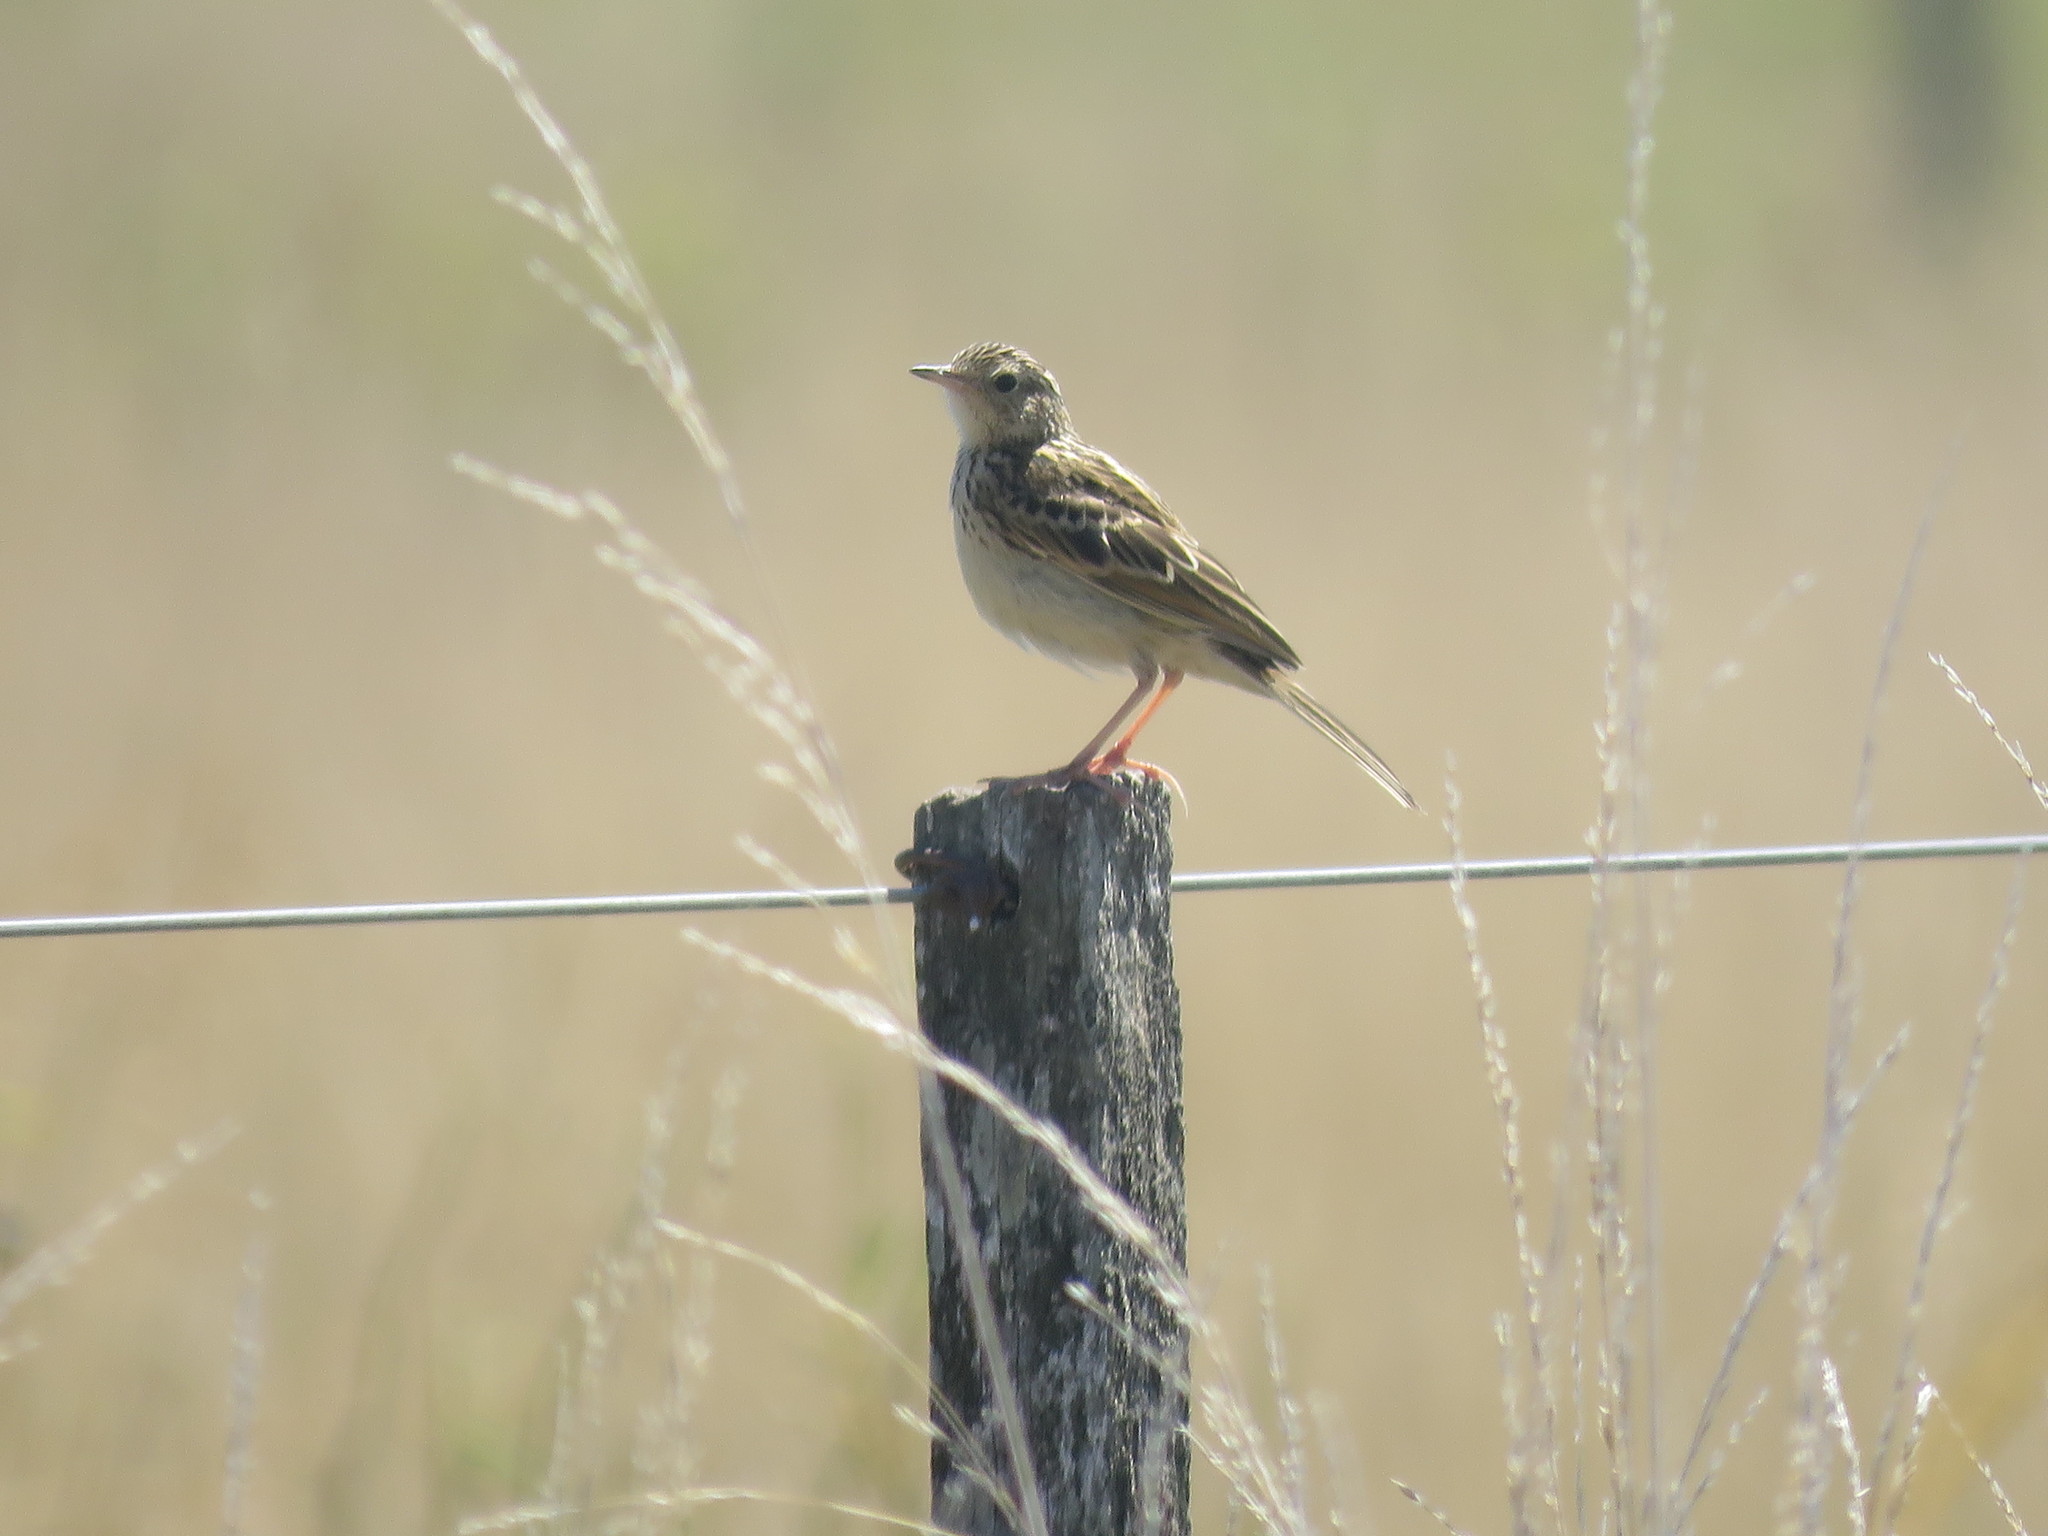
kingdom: Animalia
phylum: Chordata
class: Aves
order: Passeriformes
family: Motacillidae
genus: Anthus
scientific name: Anthus hellmayri
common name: Hellmayr's pipit
